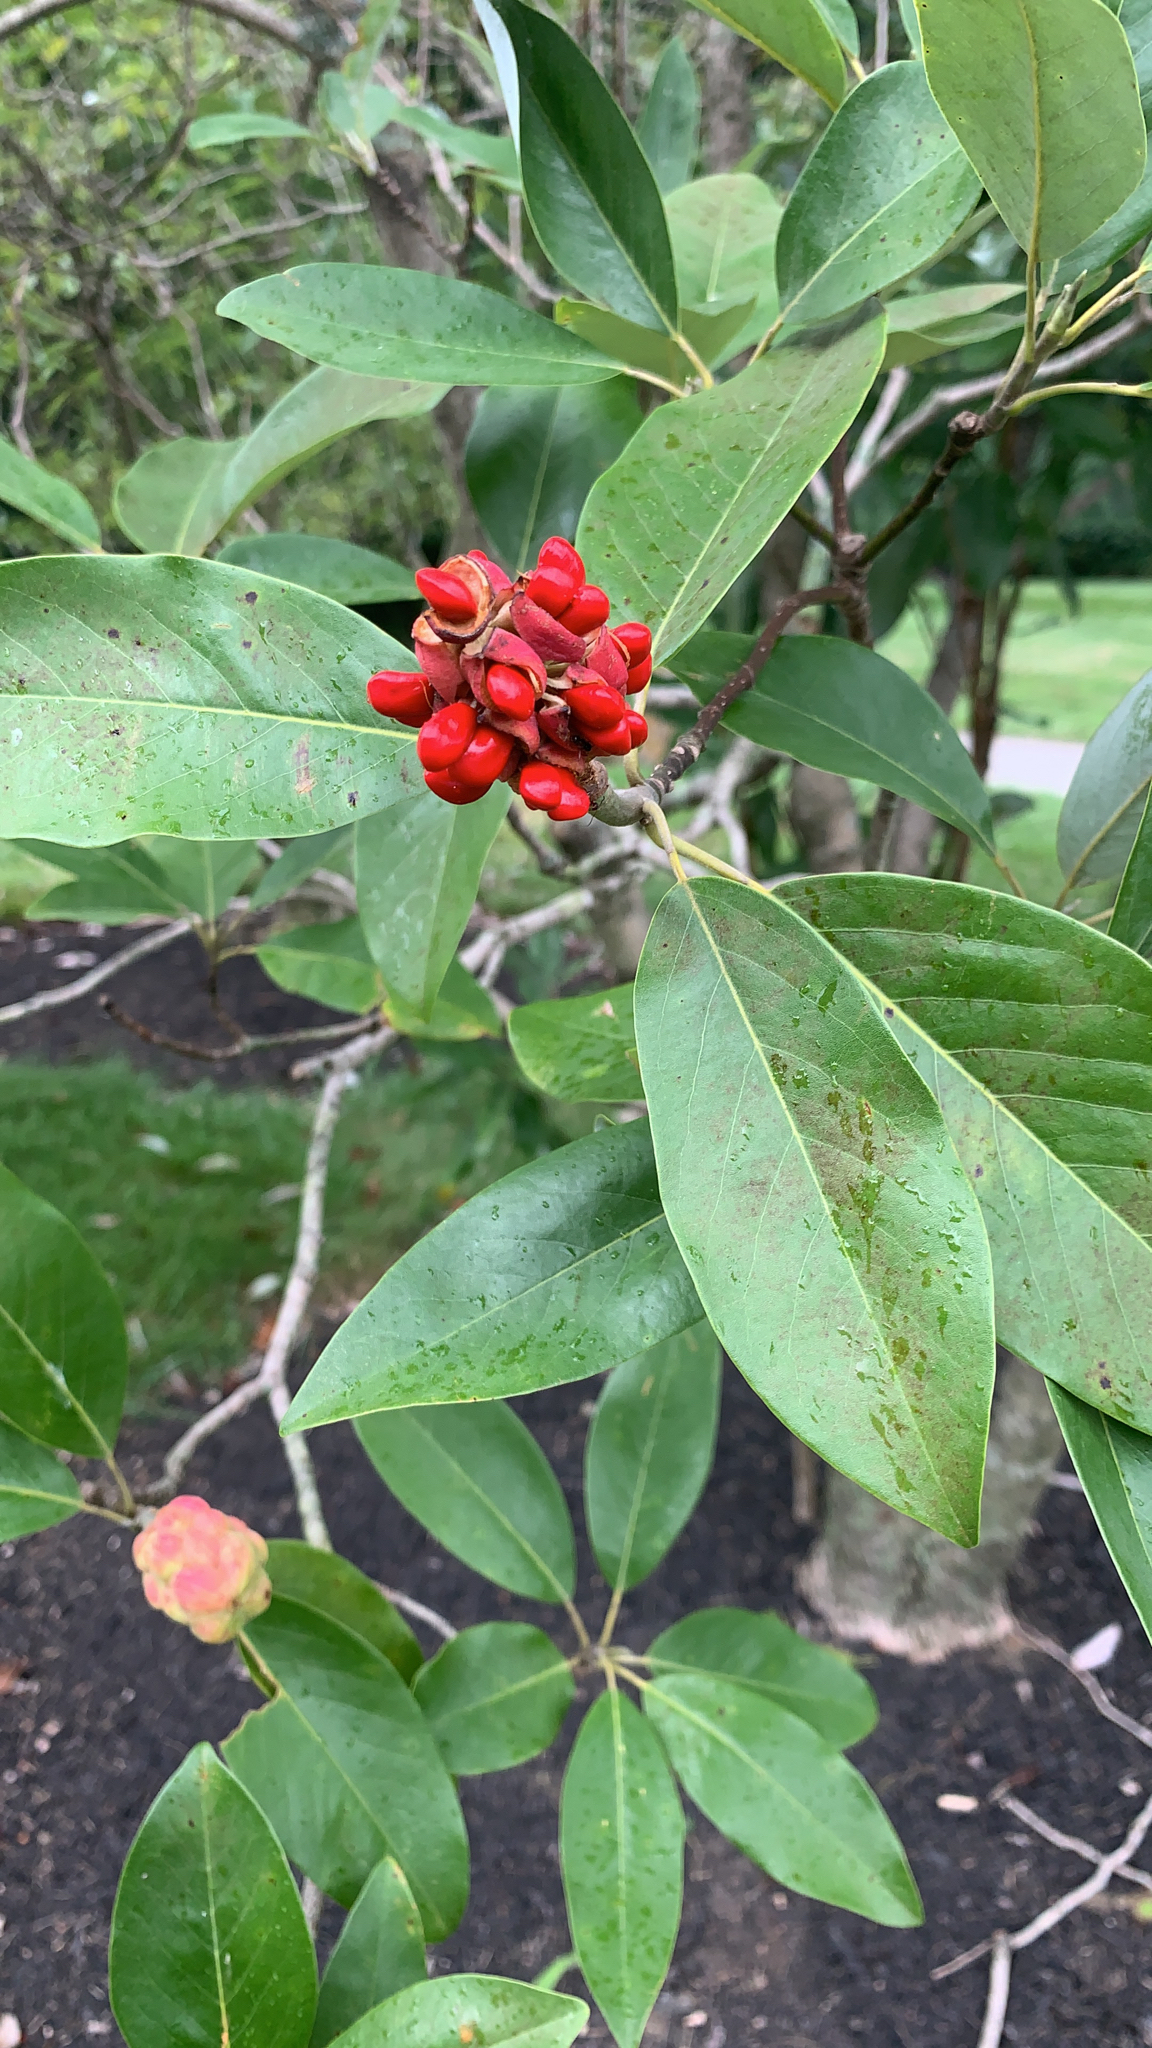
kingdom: Plantae
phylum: Tracheophyta
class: Magnoliopsida
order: Magnoliales
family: Magnoliaceae
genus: Magnolia
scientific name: Magnolia virginiana
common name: Swamp bay
